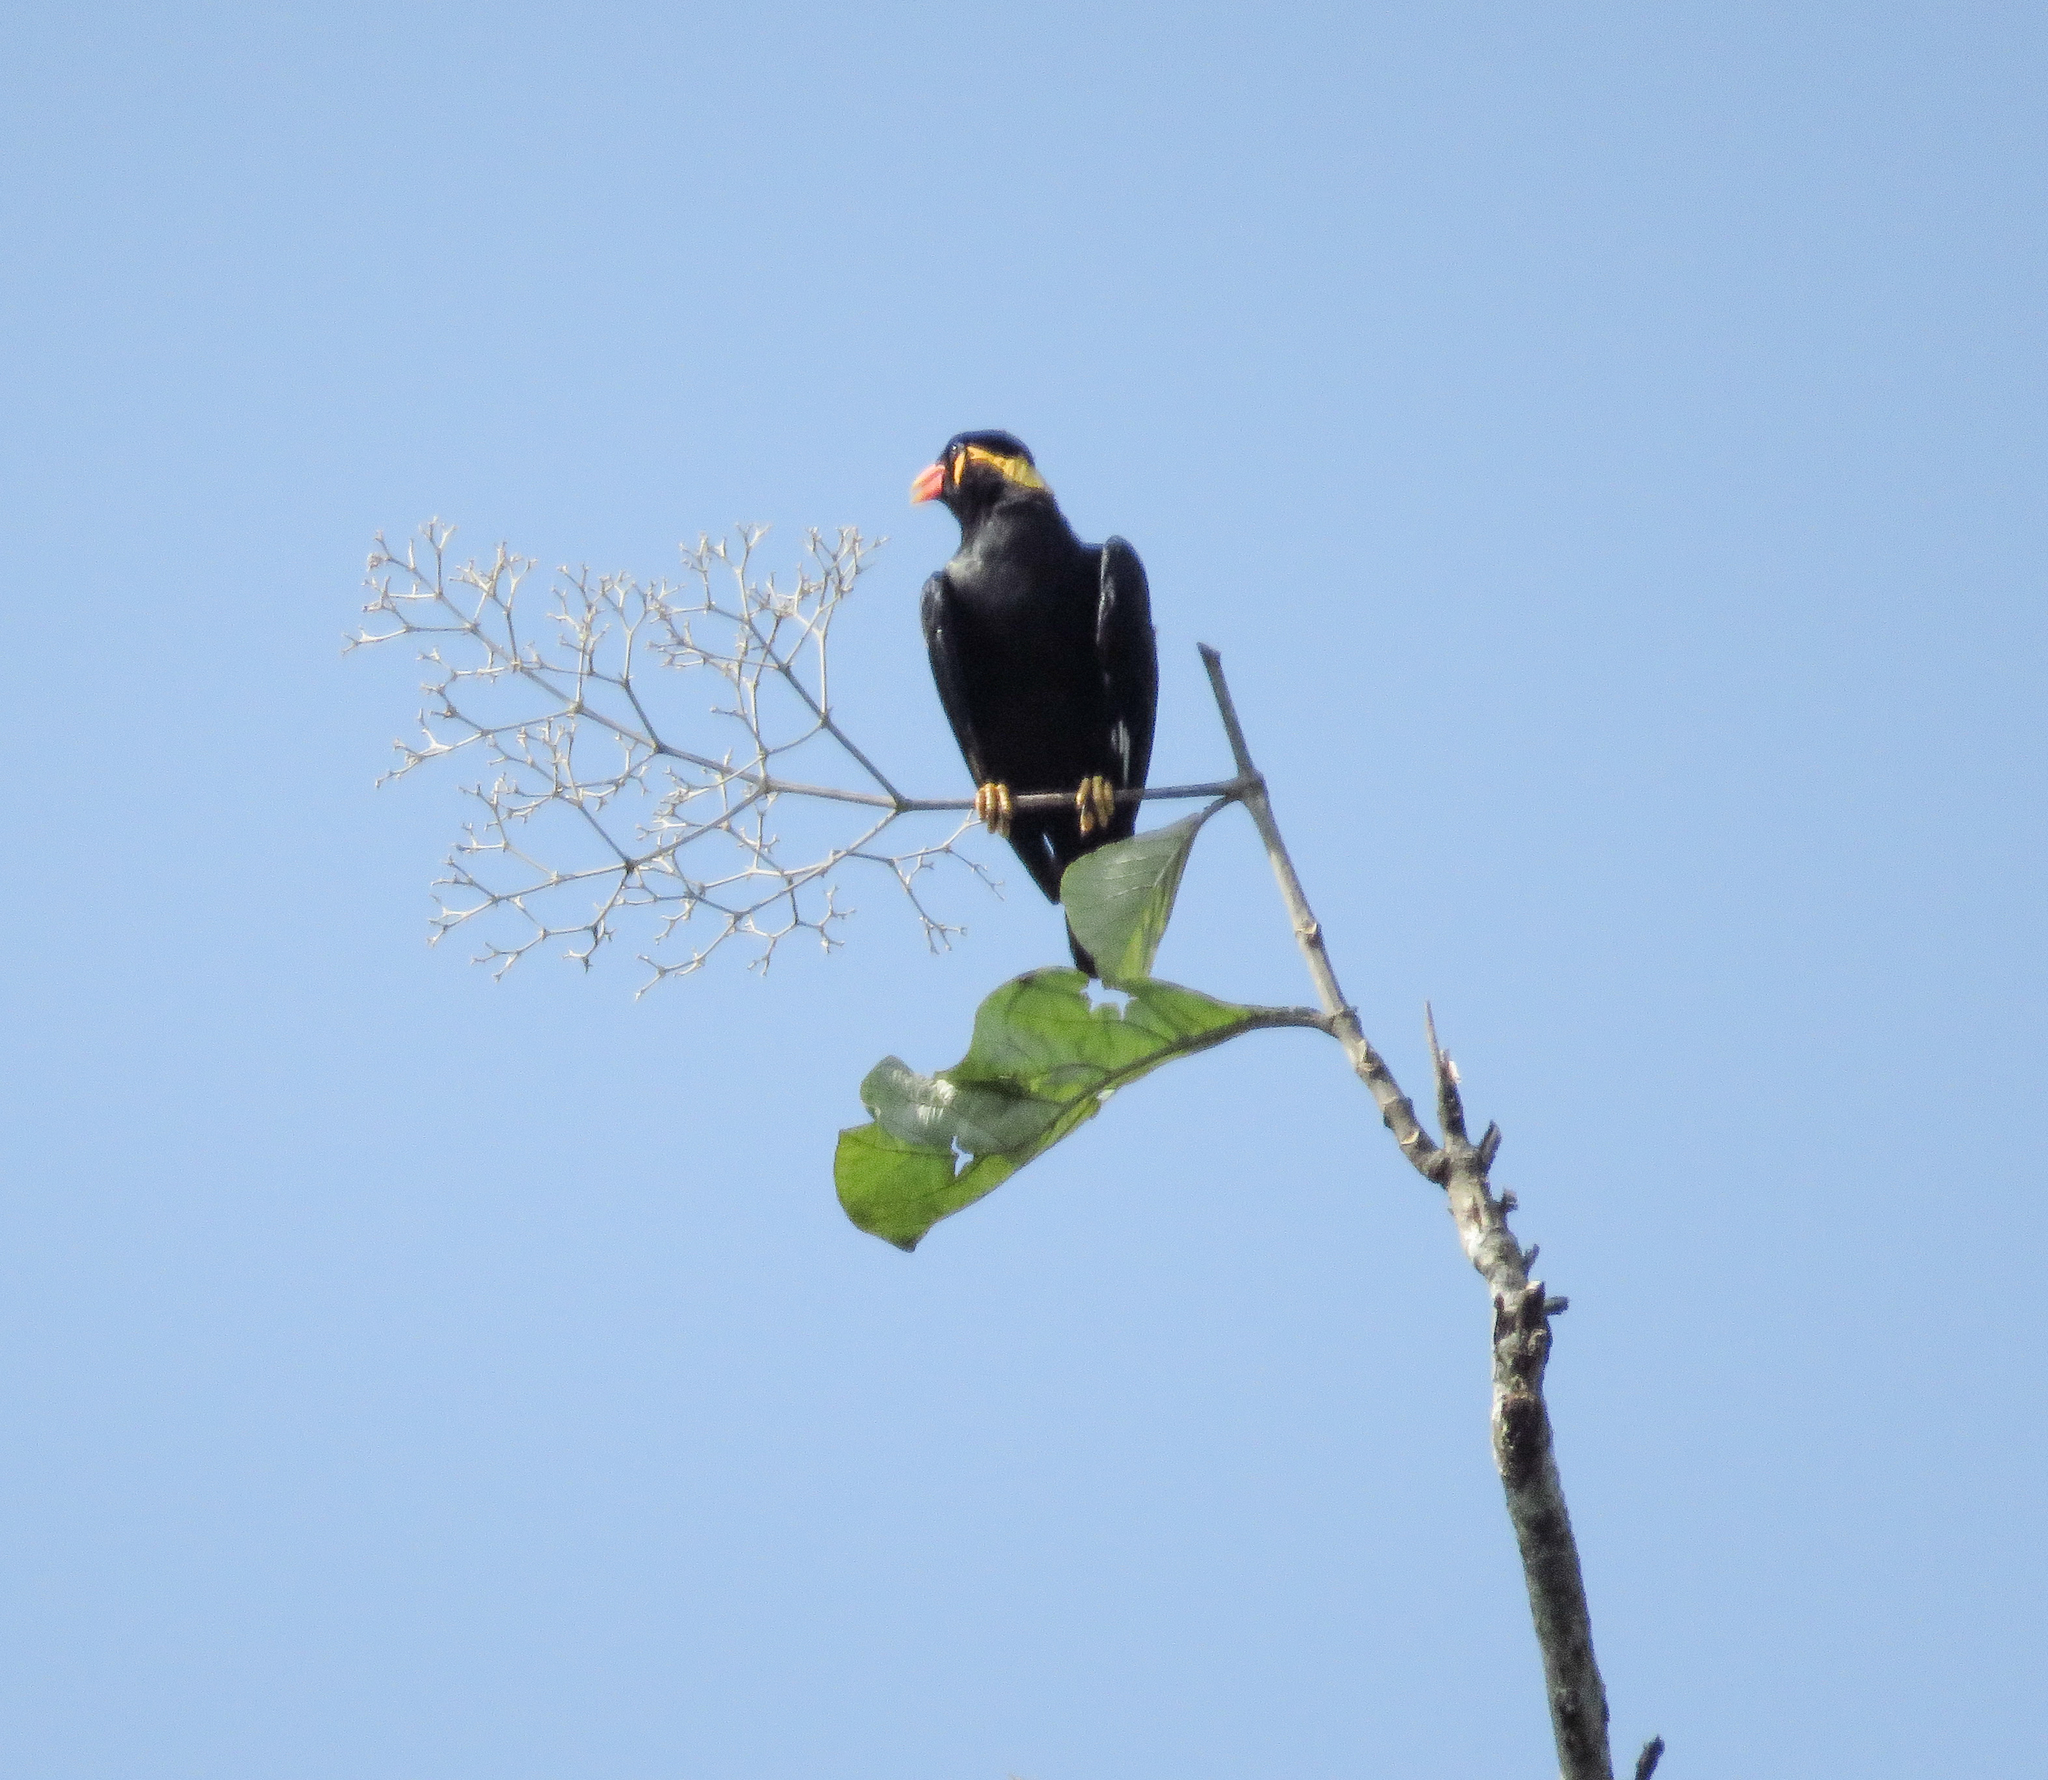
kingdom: Animalia
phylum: Chordata
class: Aves
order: Passeriformes
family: Sturnidae
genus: Gracula
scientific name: Gracula religiosa
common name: Common hill myna
